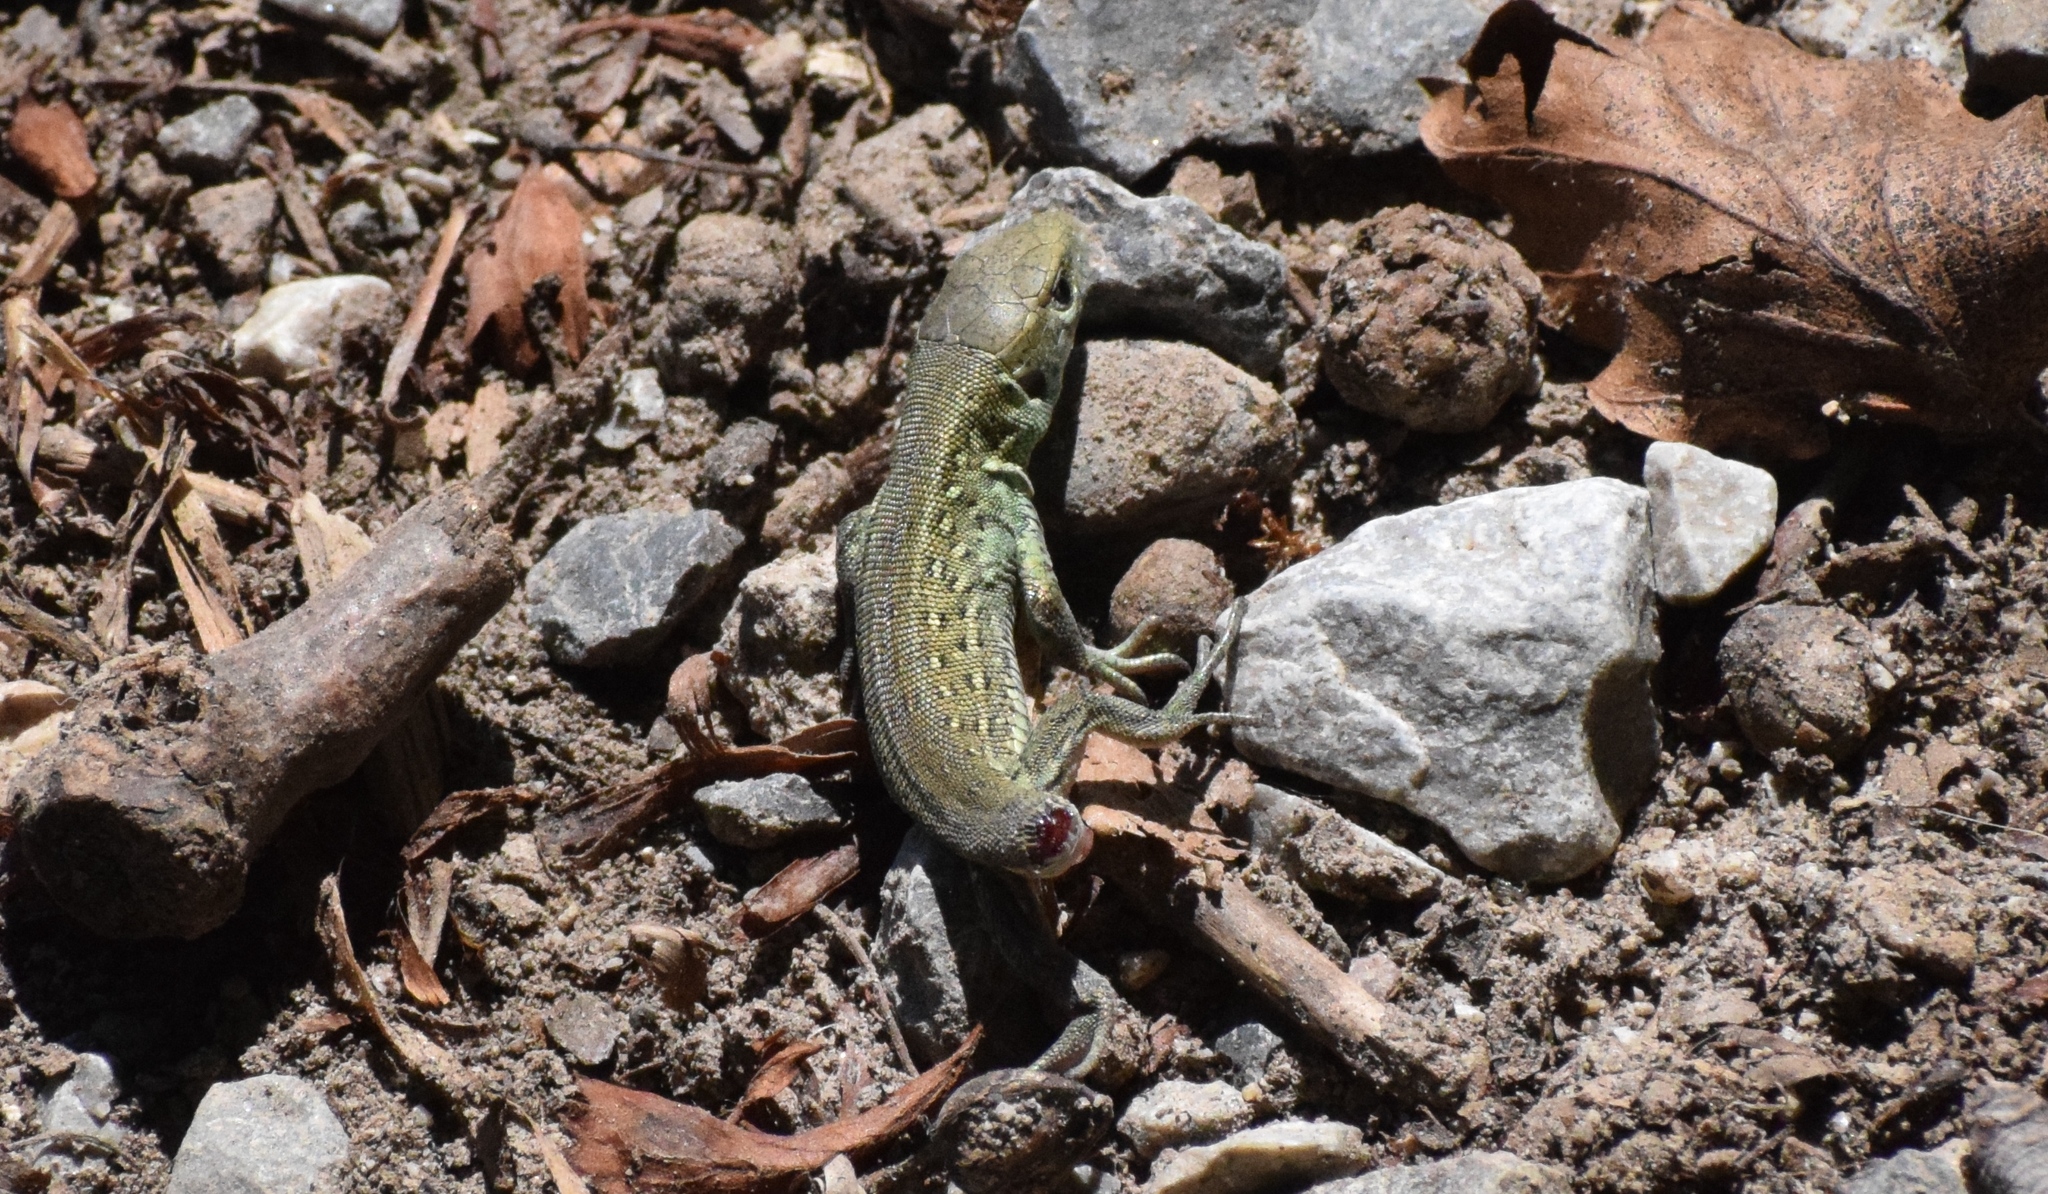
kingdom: Animalia
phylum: Chordata
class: Squamata
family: Lacertidae
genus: Lacerta
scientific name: Lacerta agilis
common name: Sand lizard
